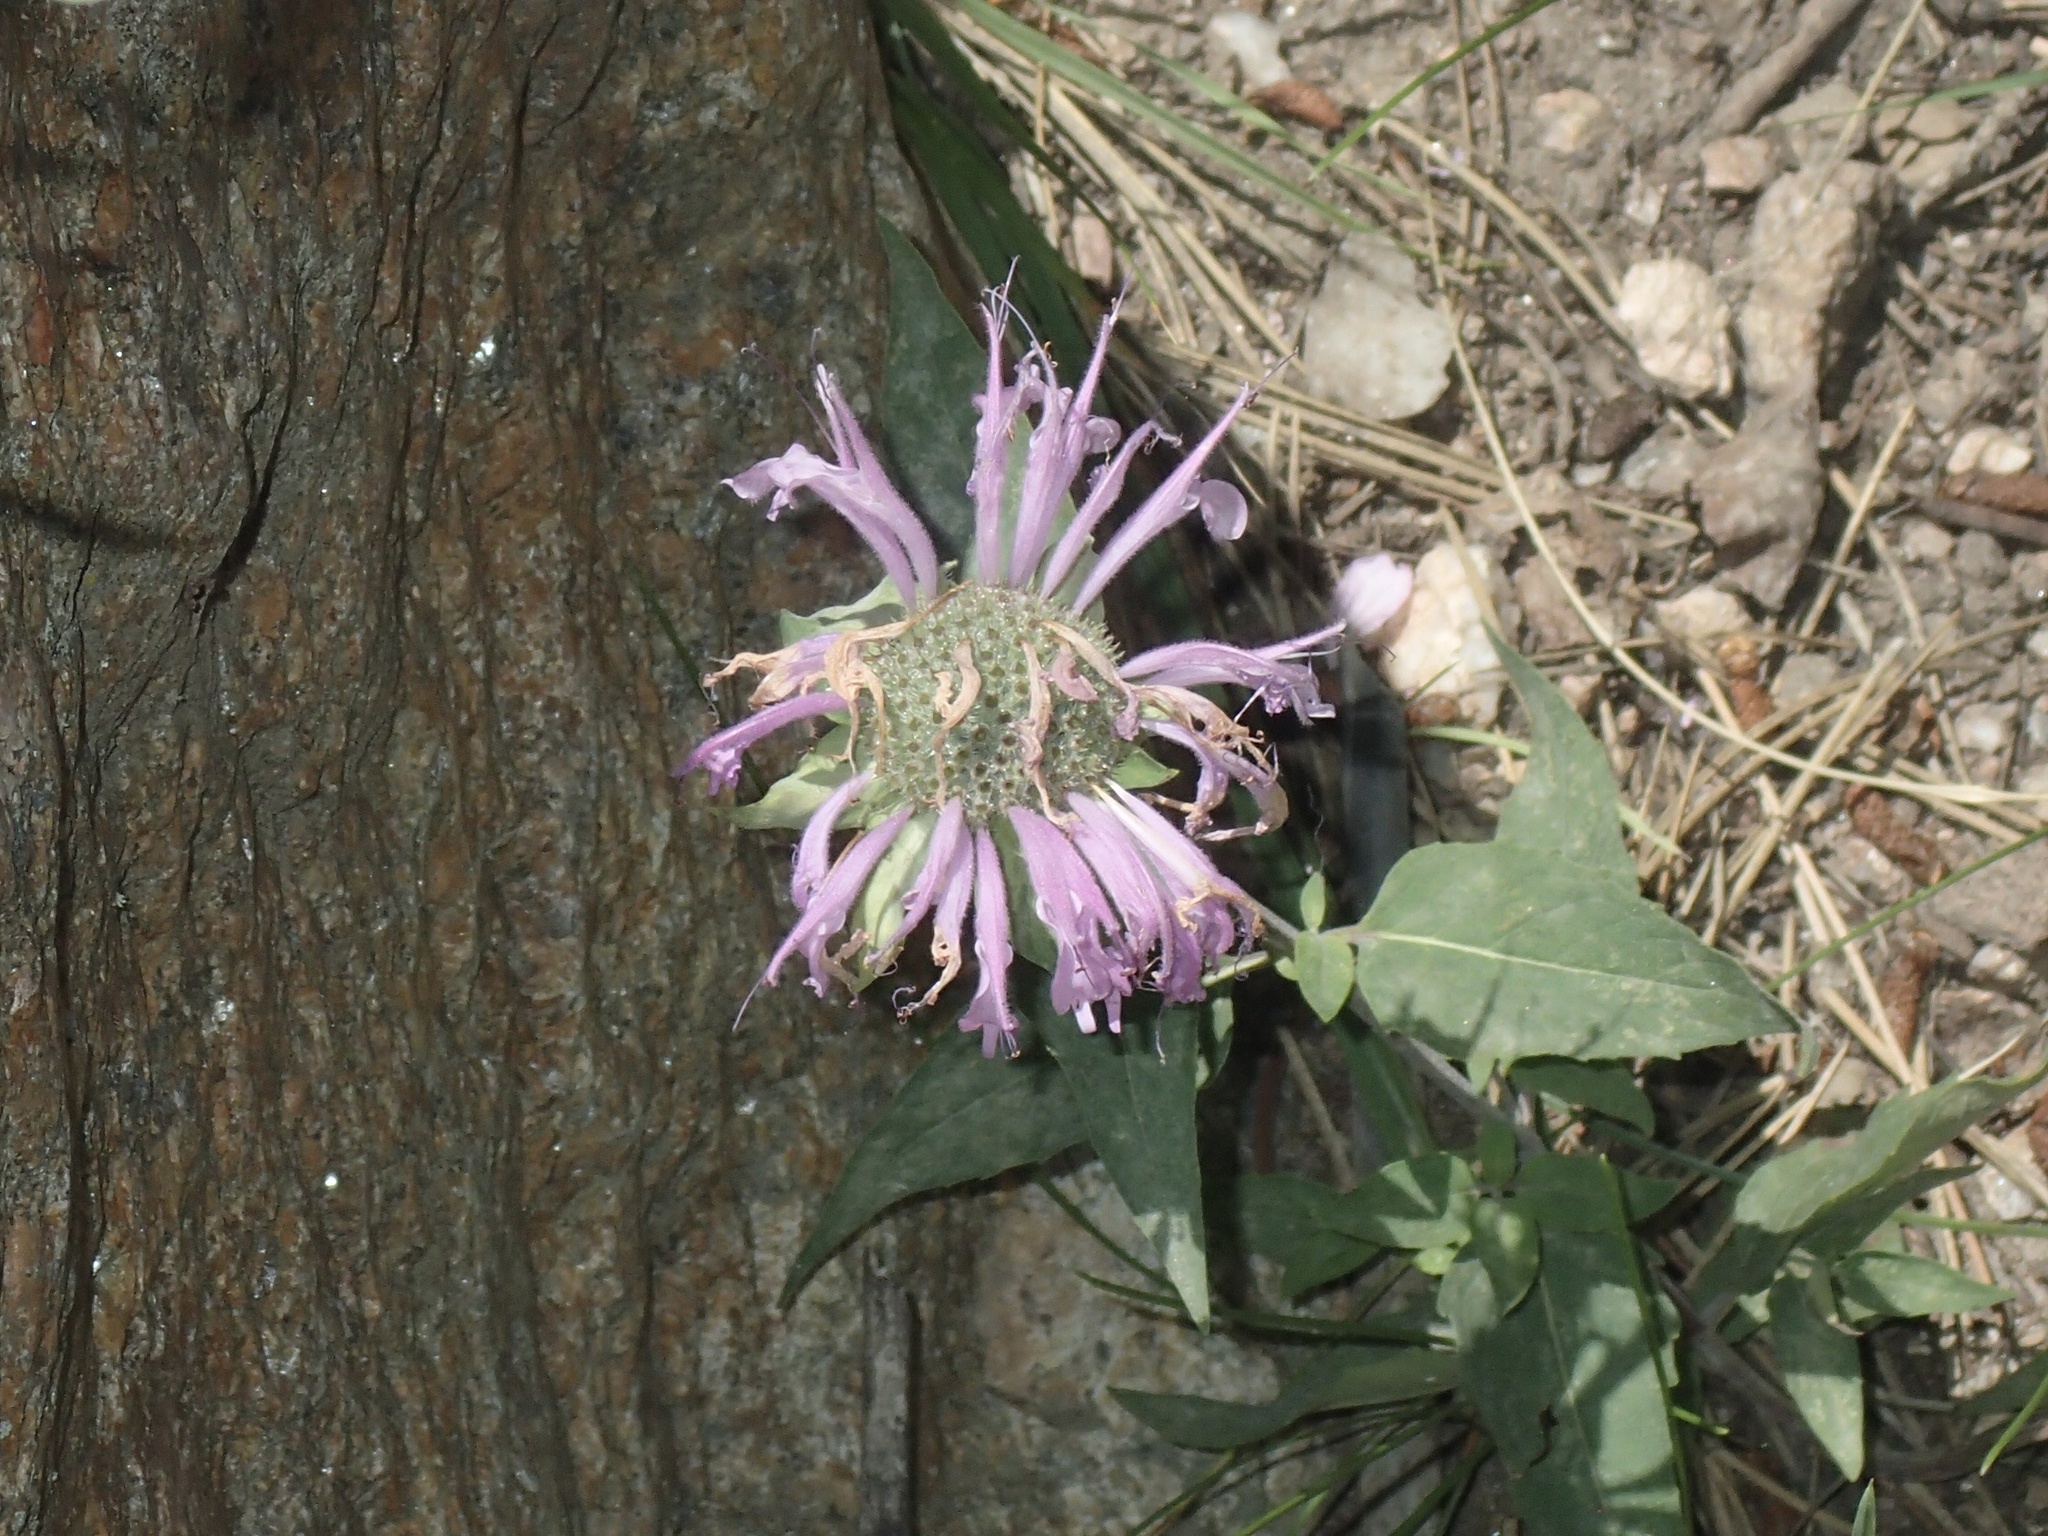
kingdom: Plantae
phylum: Tracheophyta
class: Magnoliopsida
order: Lamiales
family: Lamiaceae
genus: Monarda
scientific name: Monarda fistulosa
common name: Purple beebalm
